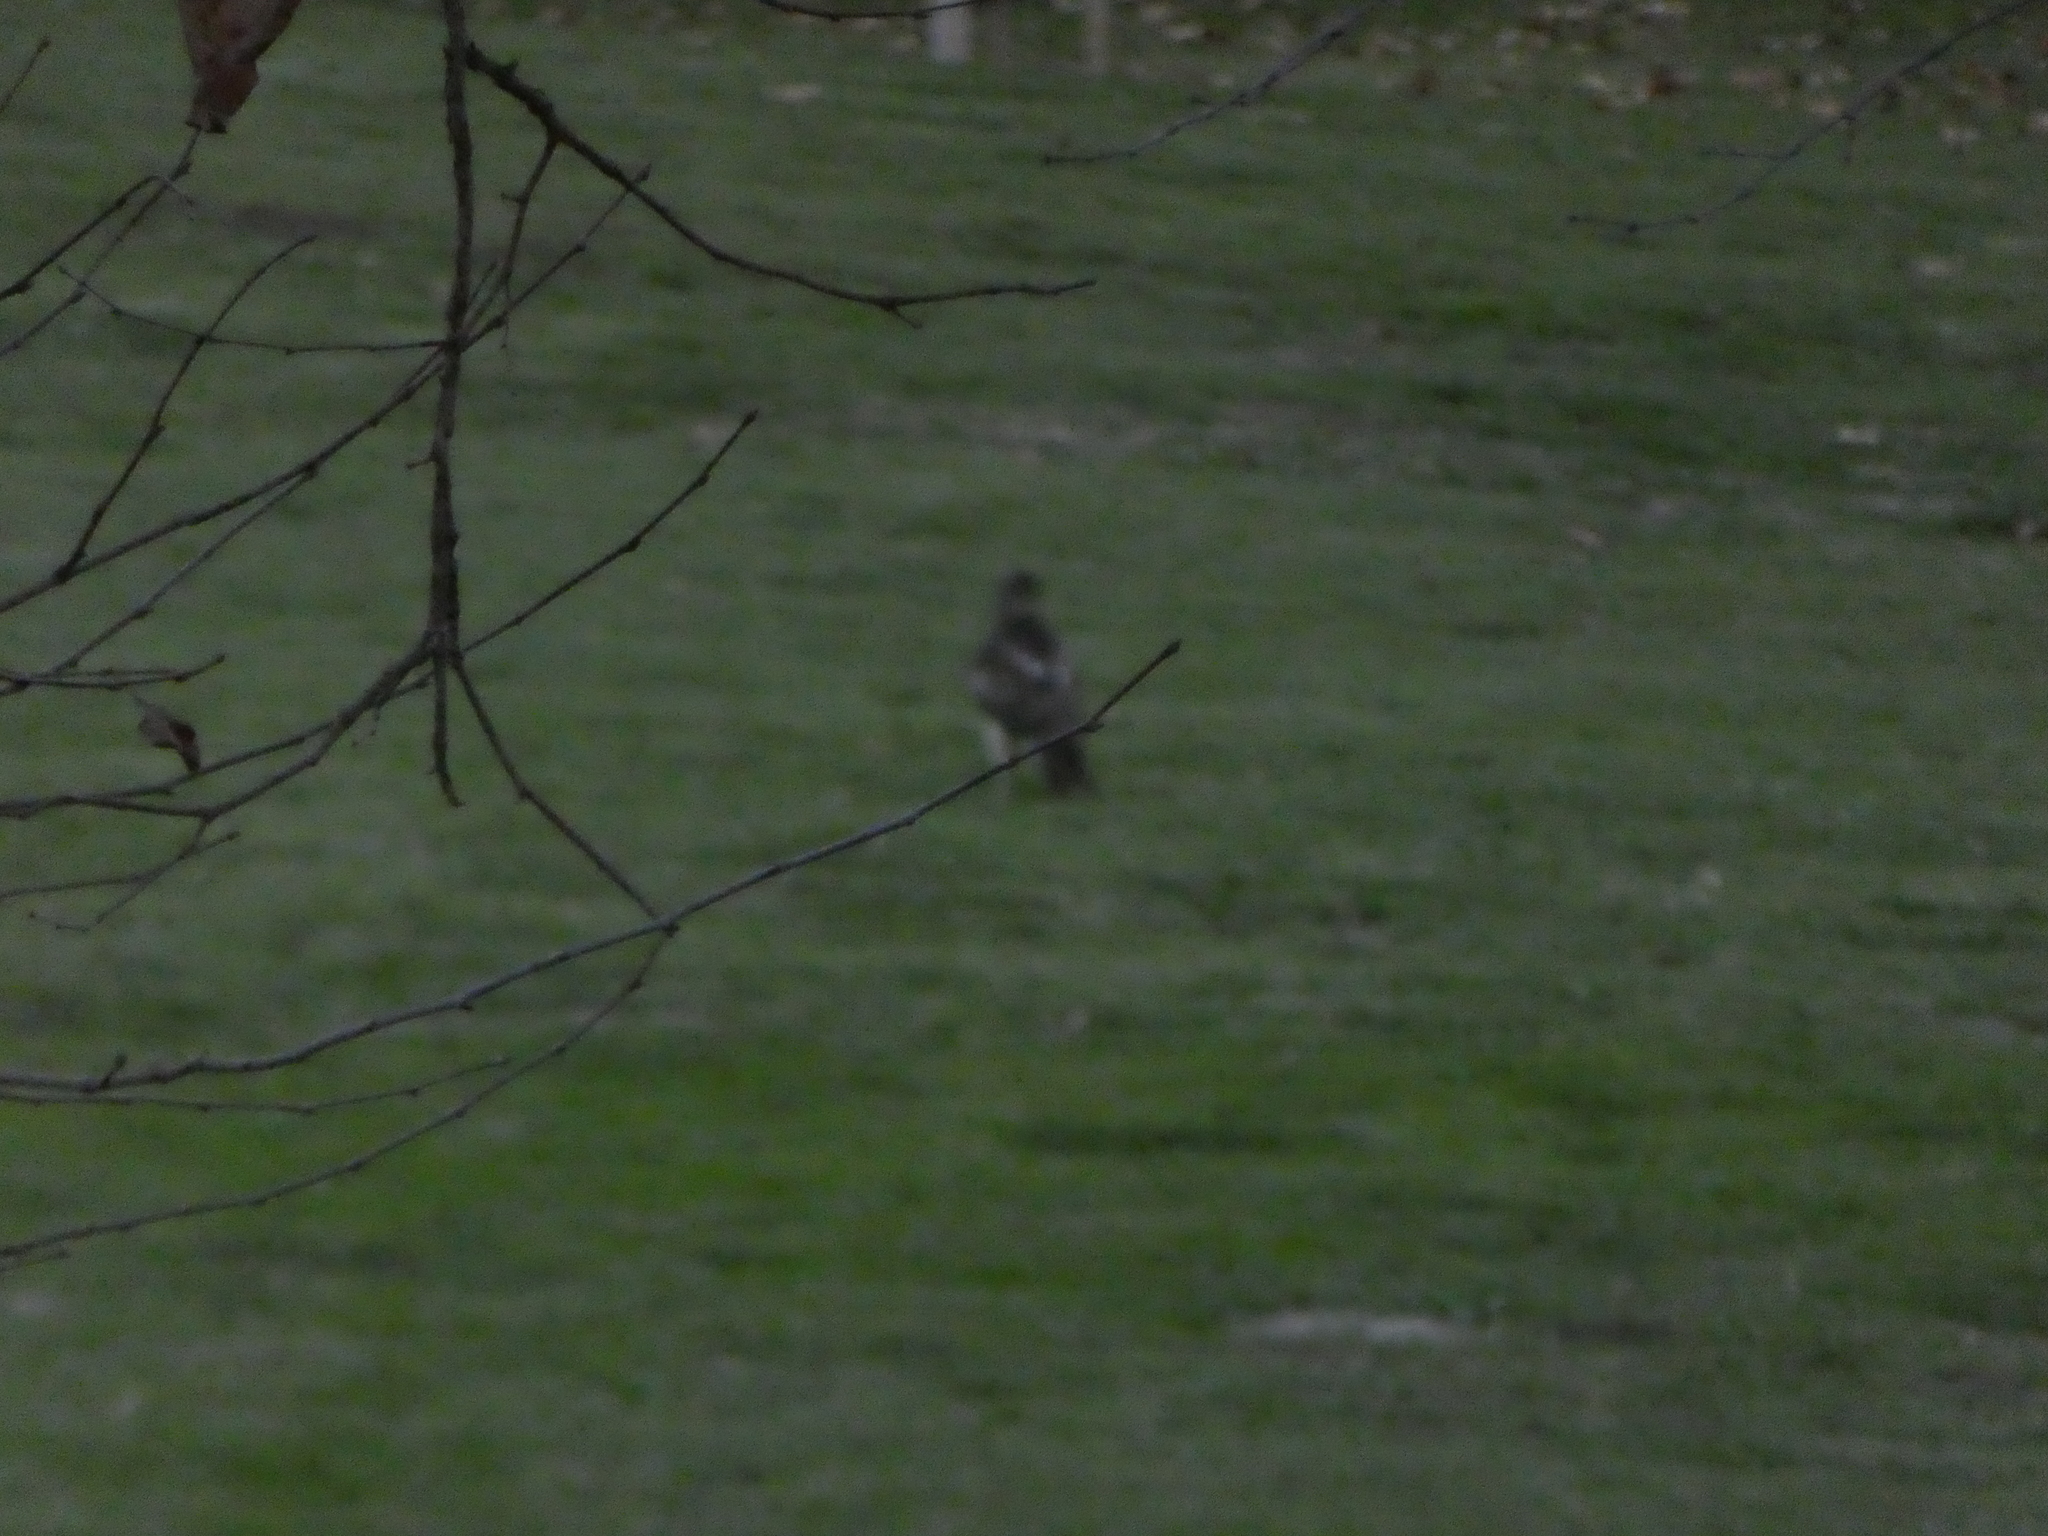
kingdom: Animalia
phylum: Chordata
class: Aves
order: Accipitriformes
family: Accipitridae
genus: Buteo
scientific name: Buteo jamaicensis
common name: Red-tailed hawk
